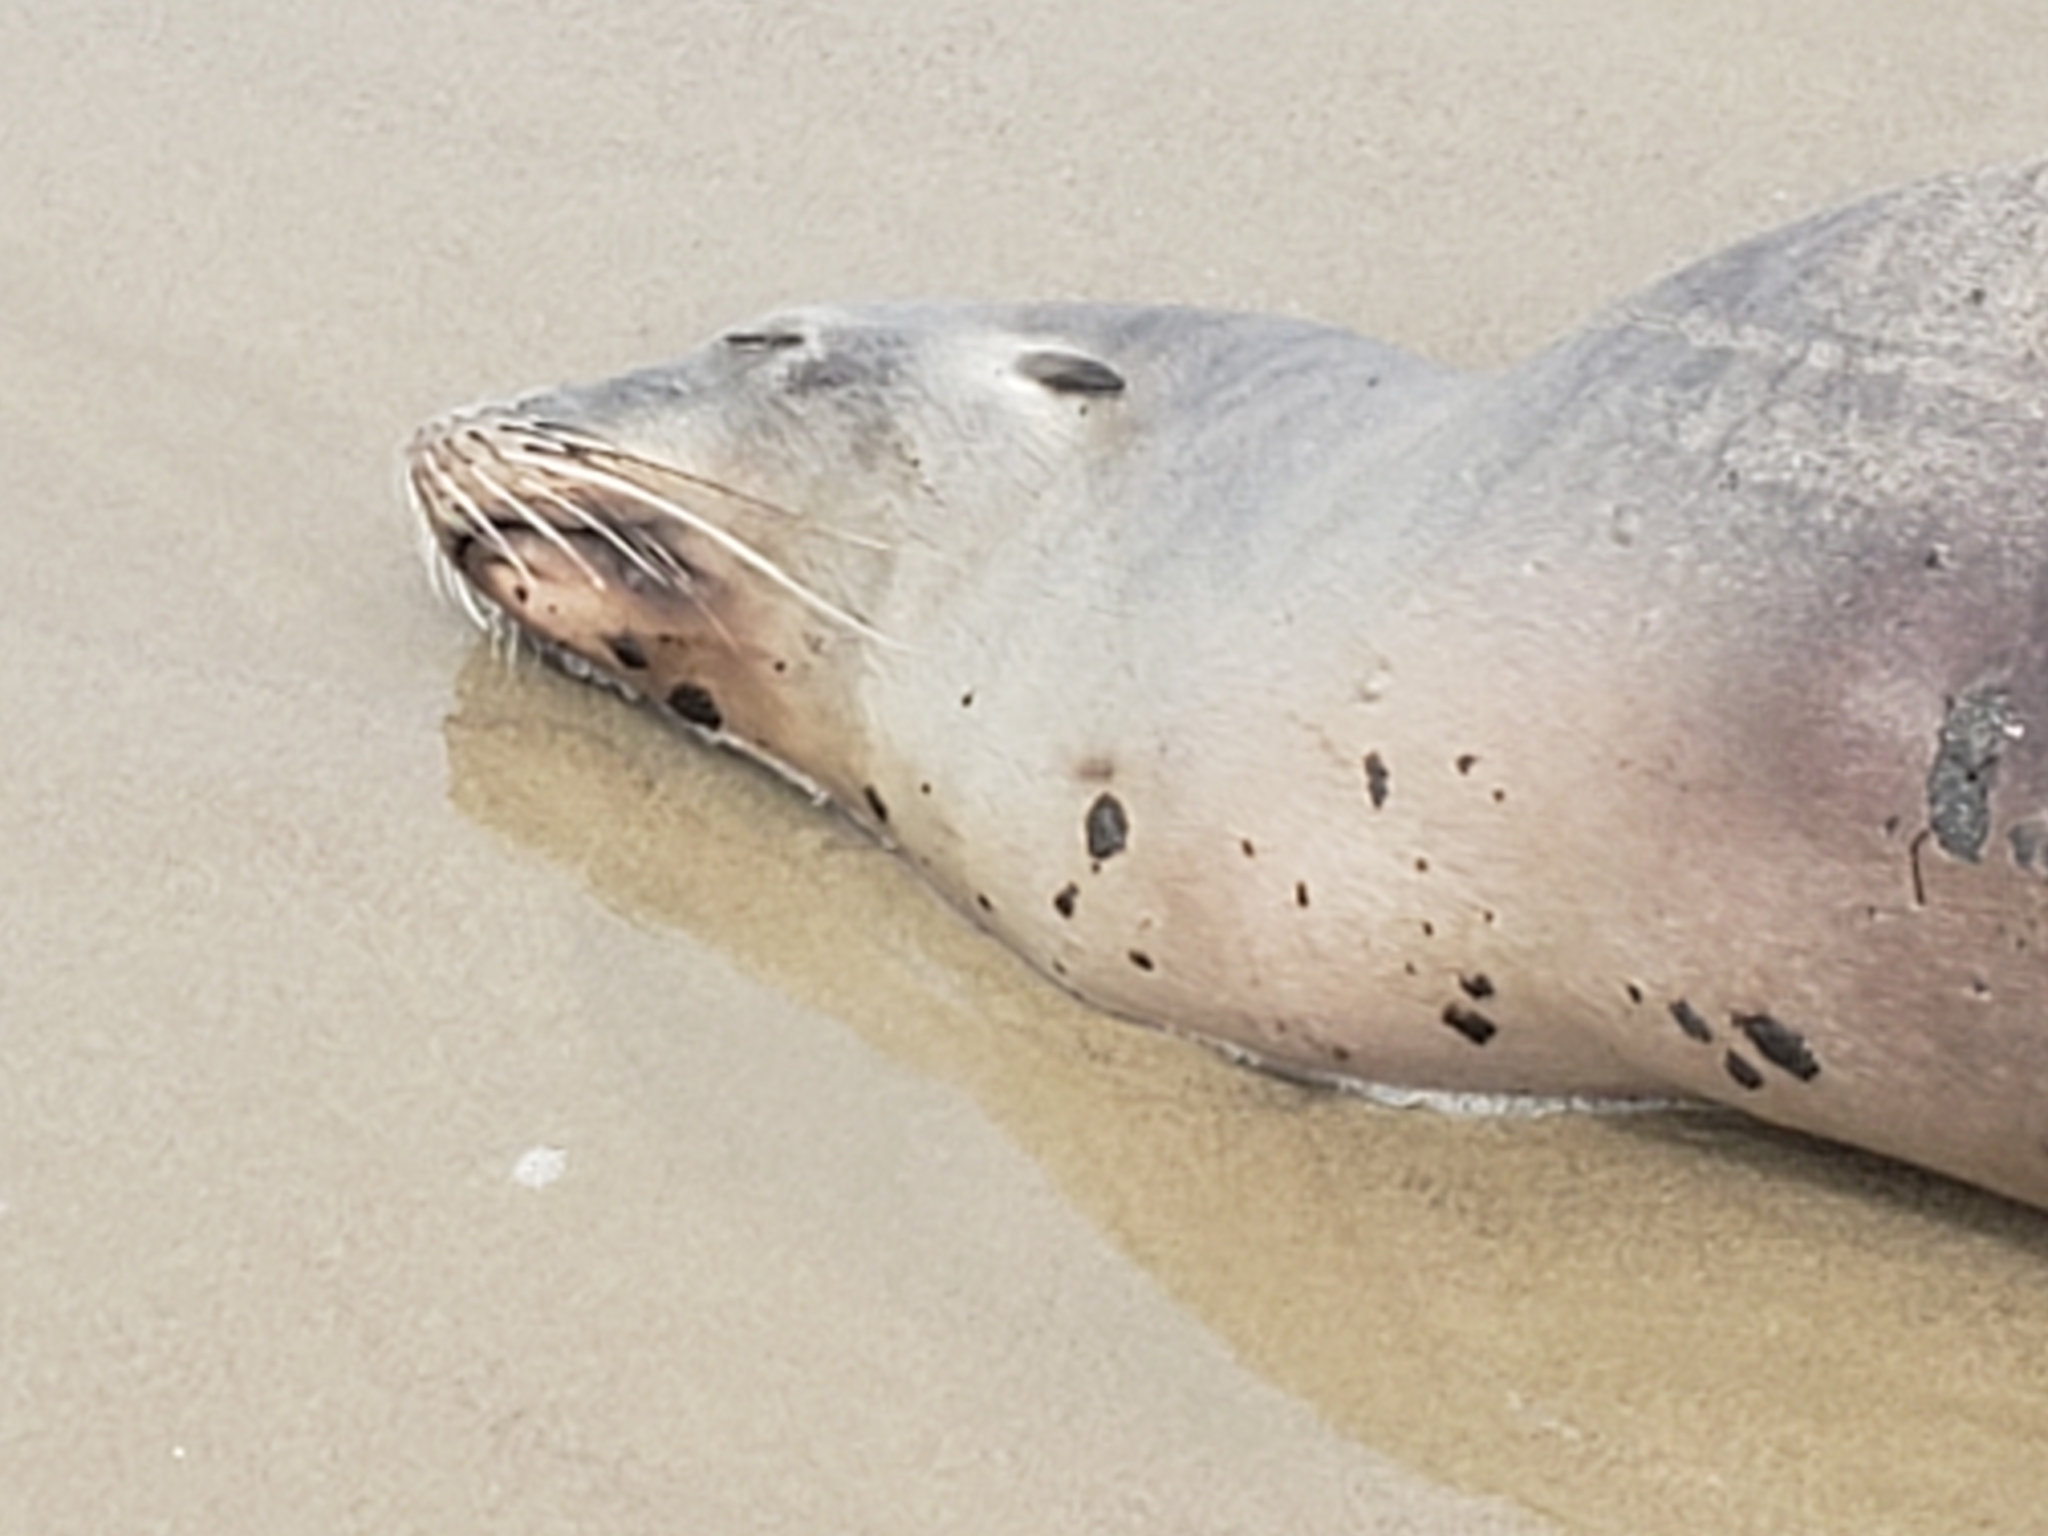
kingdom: Animalia
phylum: Chordata
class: Mammalia
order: Carnivora
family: Otariidae
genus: Zalophus
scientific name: Zalophus californianus
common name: California sea lion
